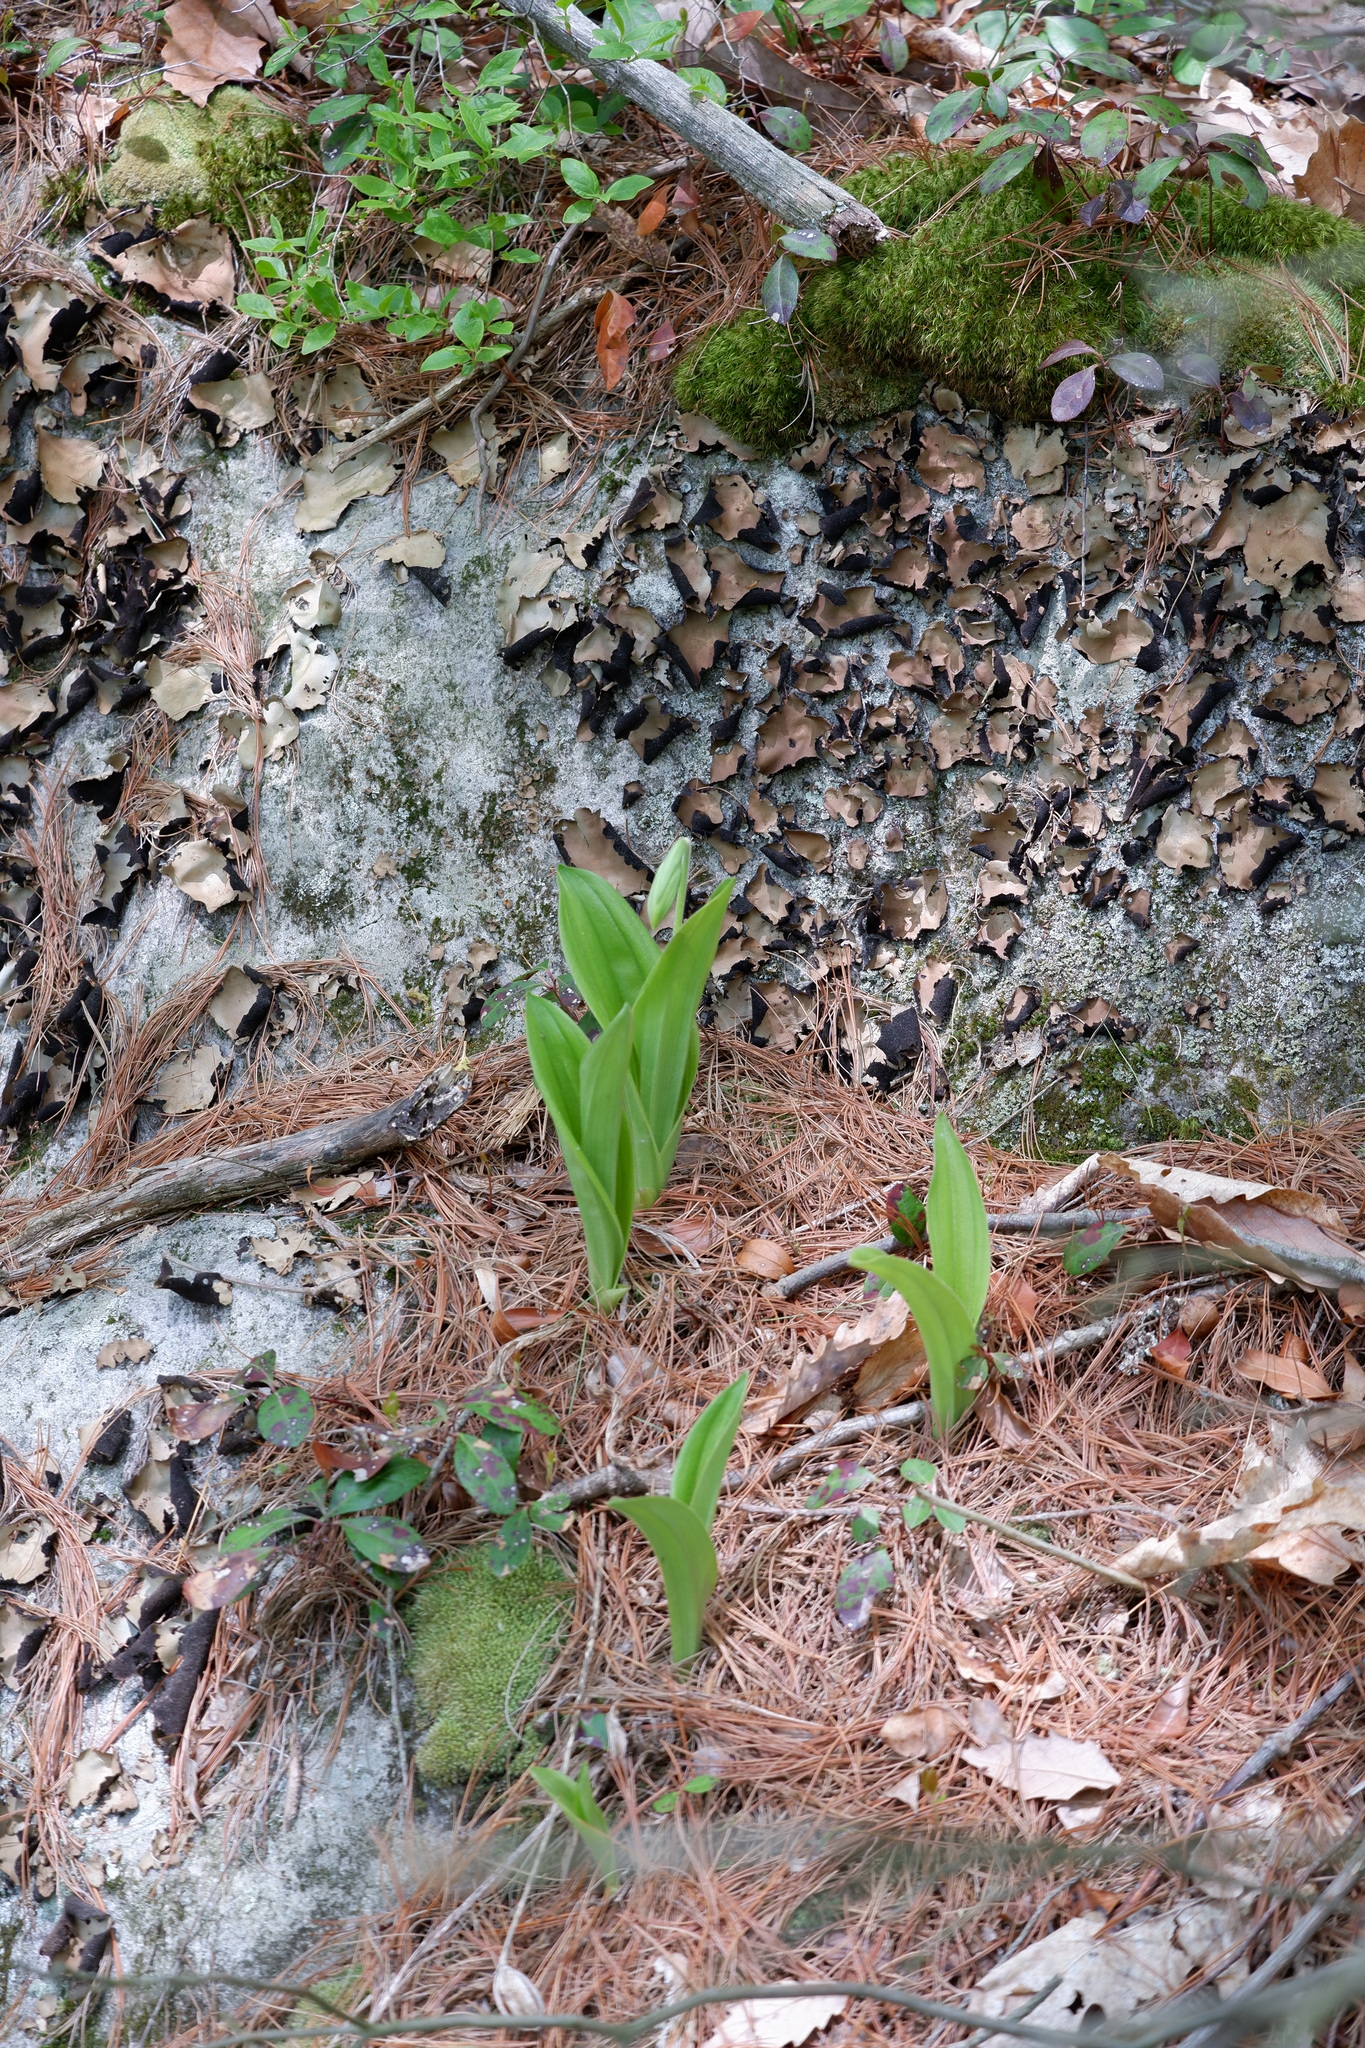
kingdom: Plantae
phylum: Tracheophyta
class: Liliopsida
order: Asparagales
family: Orchidaceae
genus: Cypripedium
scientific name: Cypripedium acaule
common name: Pink lady's-slipper
